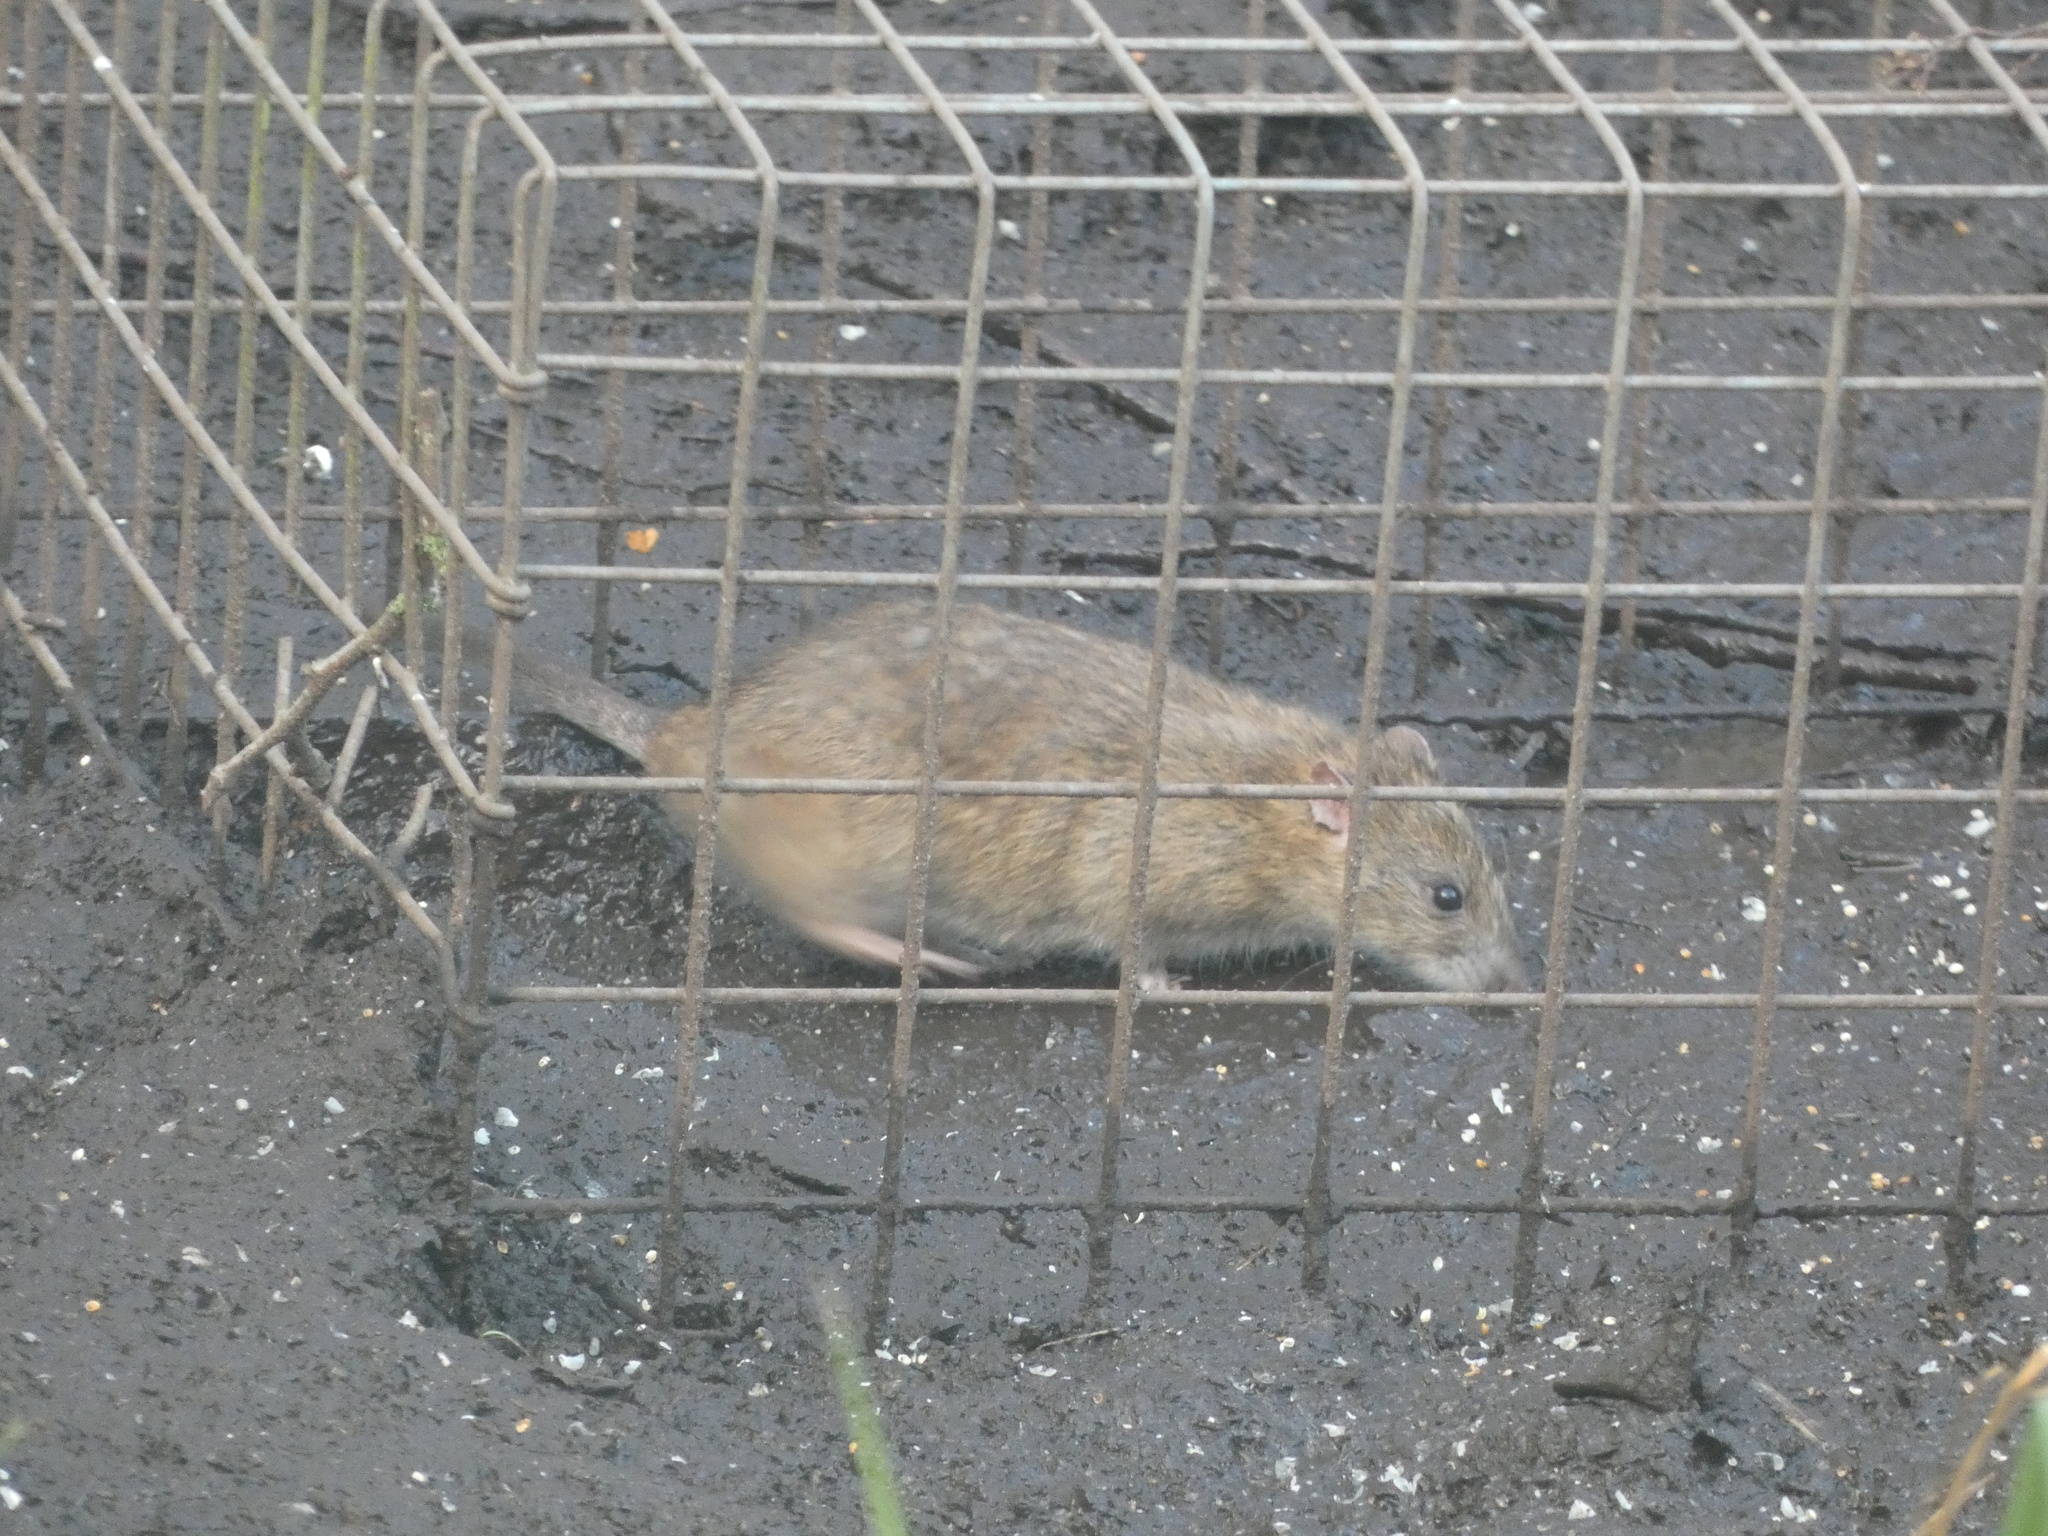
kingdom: Animalia
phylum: Chordata
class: Mammalia
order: Rodentia
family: Muridae
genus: Rattus
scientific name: Rattus norvegicus
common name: Brown rat
